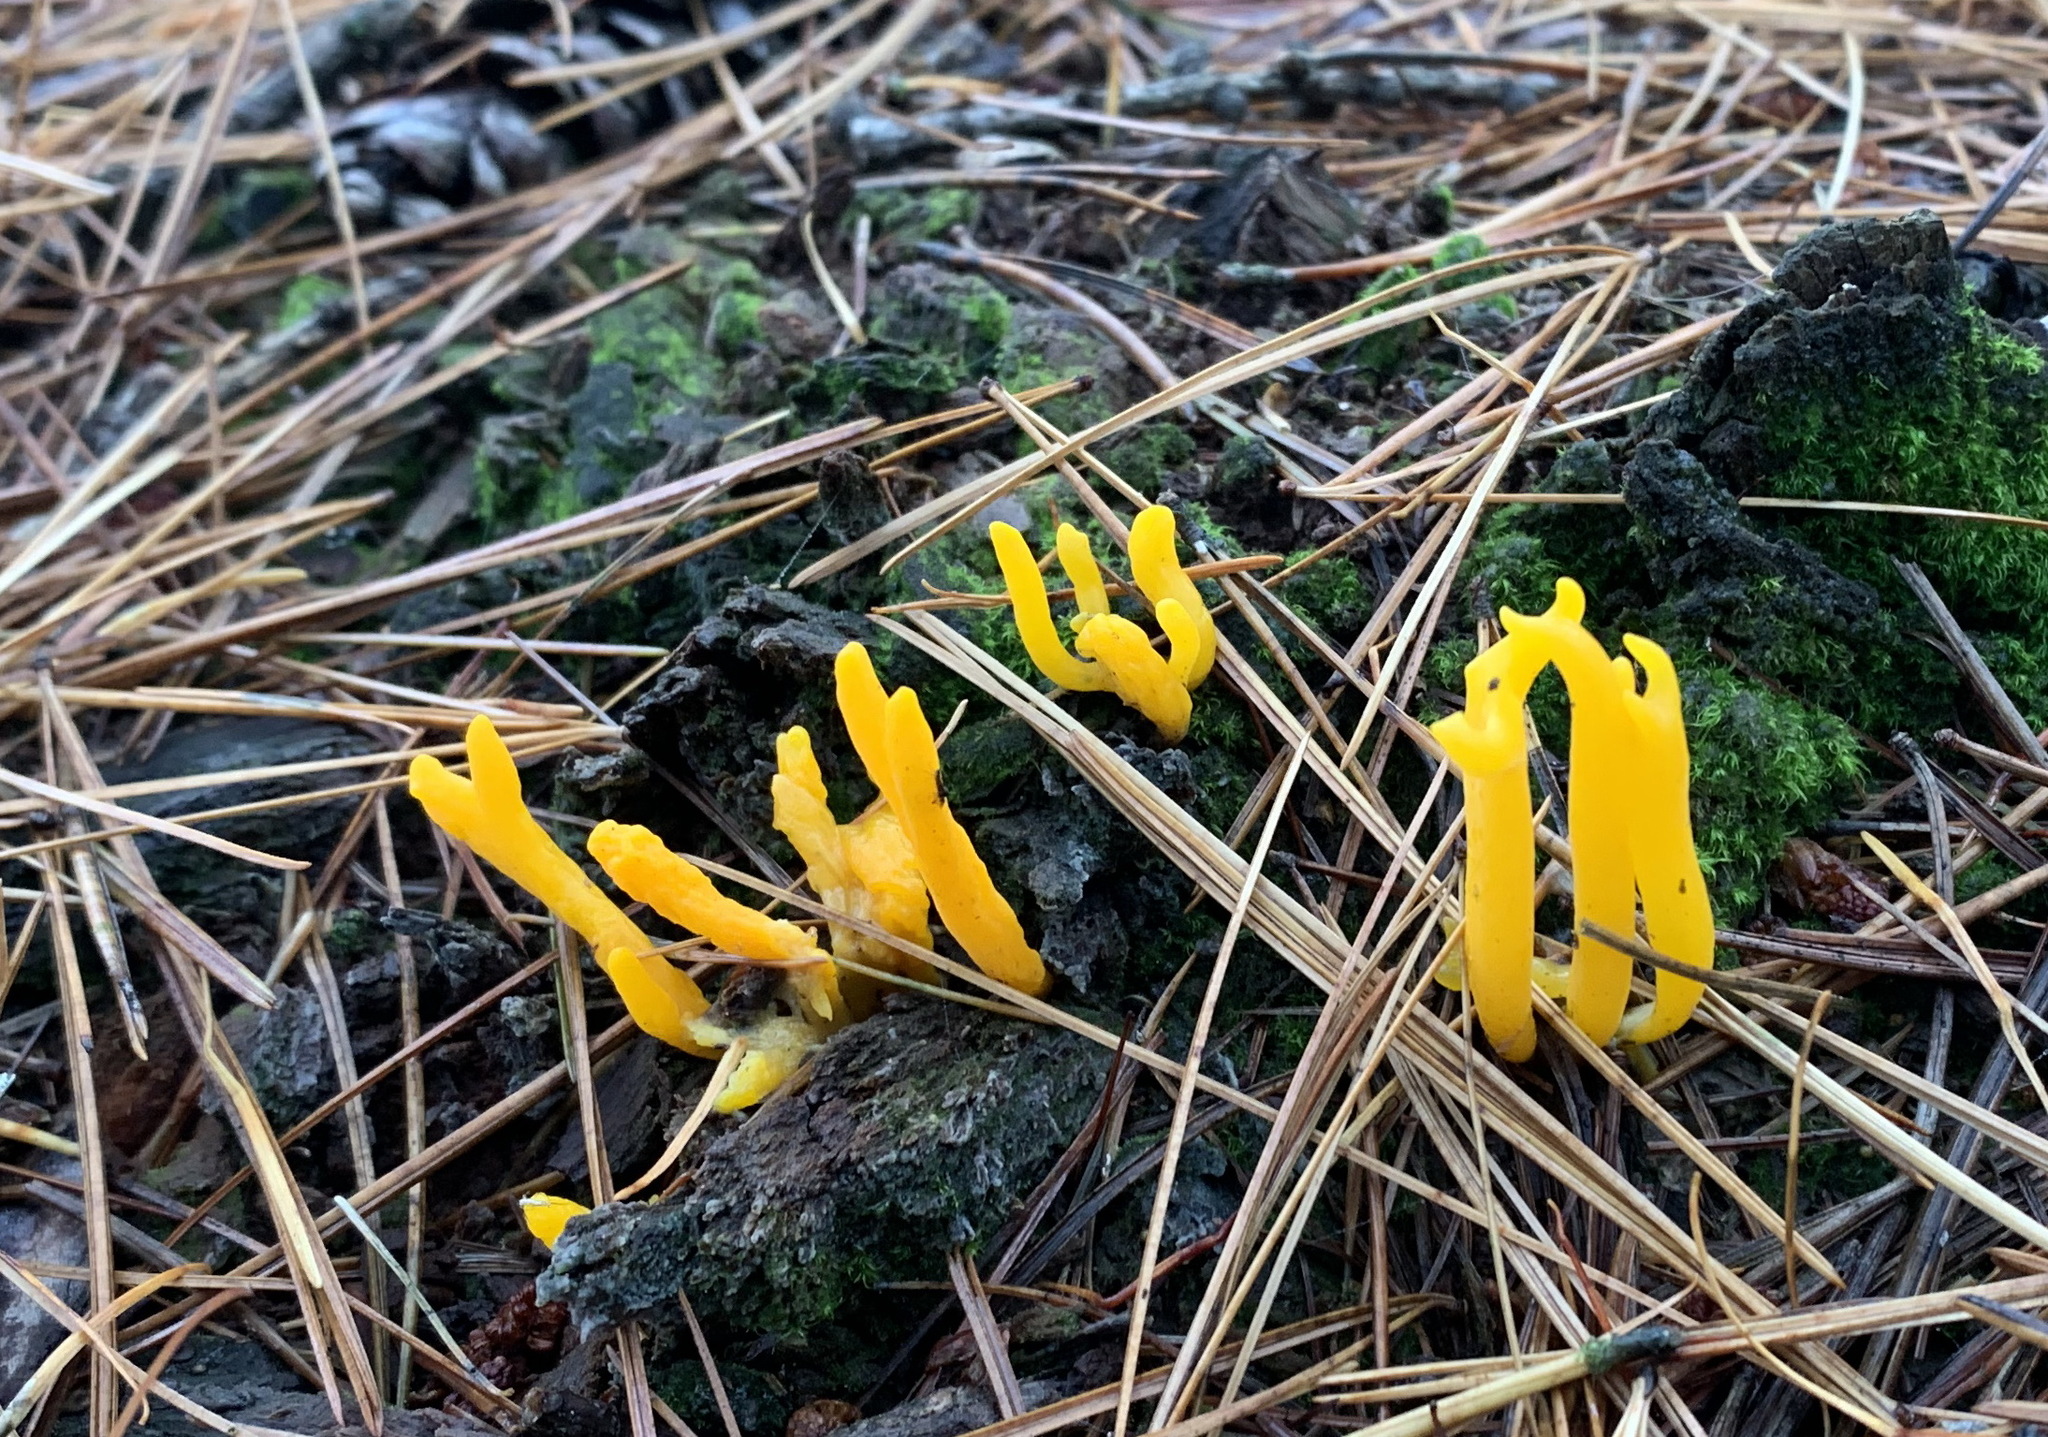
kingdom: Fungi
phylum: Basidiomycota
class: Dacrymycetes
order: Dacrymycetales
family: Dacrymycetaceae
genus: Calocera
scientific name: Calocera viscosa
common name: Yellow stagshorn
